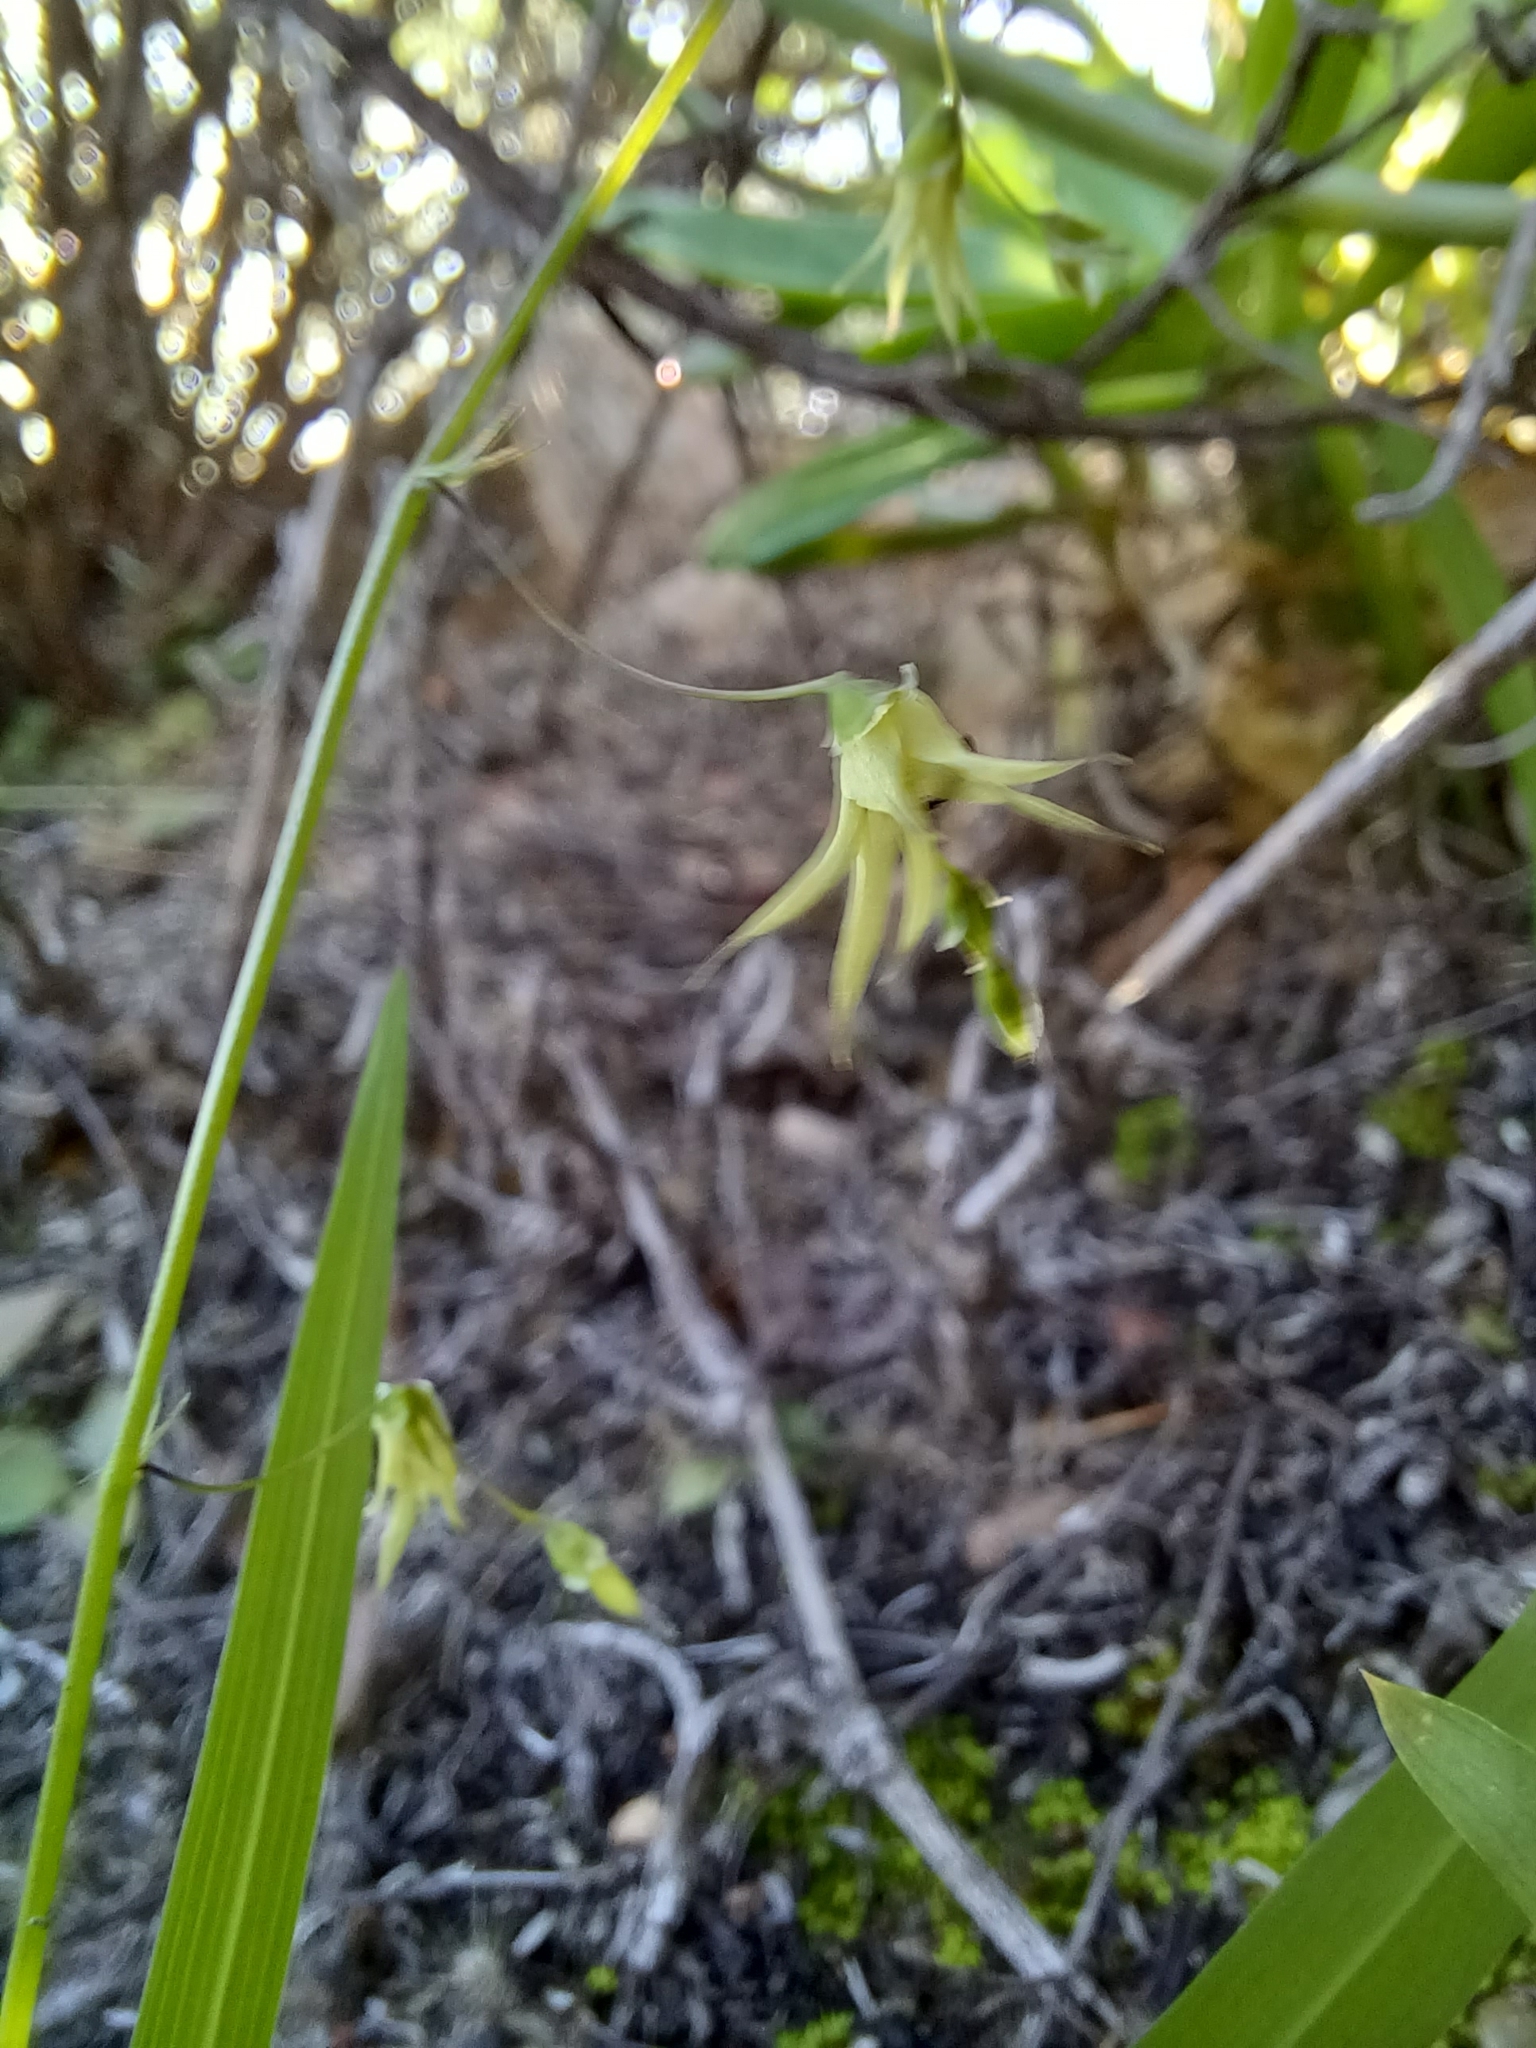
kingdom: Plantae
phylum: Tracheophyta
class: Liliopsida
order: Asparagales
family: Iridaceae
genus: Melasphaerula
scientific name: Melasphaerula graminea
